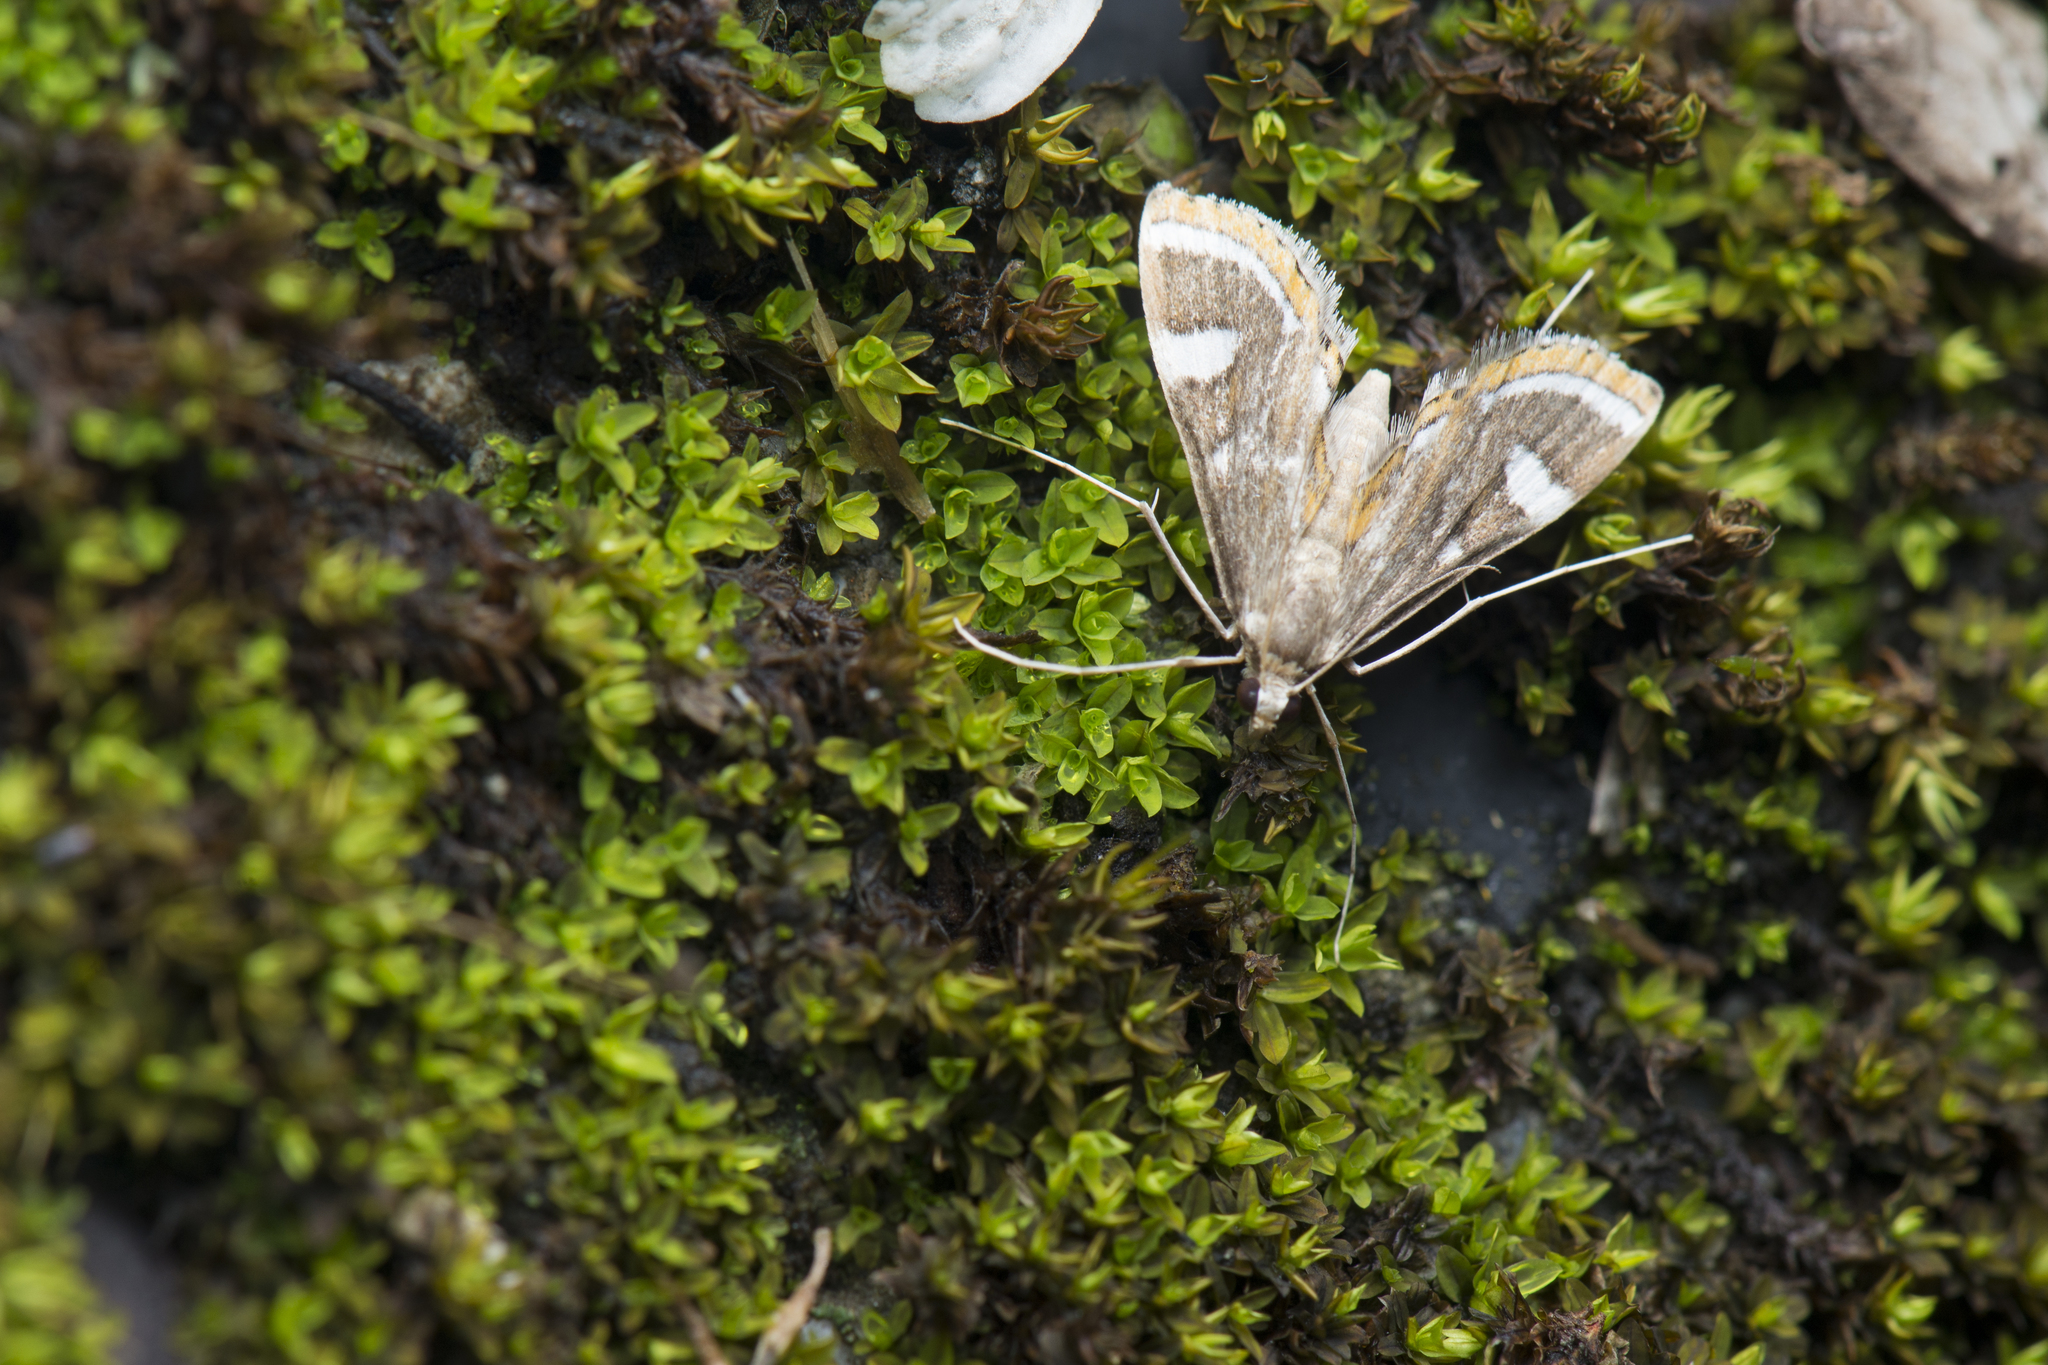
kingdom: Animalia
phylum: Arthropoda
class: Insecta
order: Lepidoptera
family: Crambidae
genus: Strepsinoma
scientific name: Strepsinoma croesusalis
